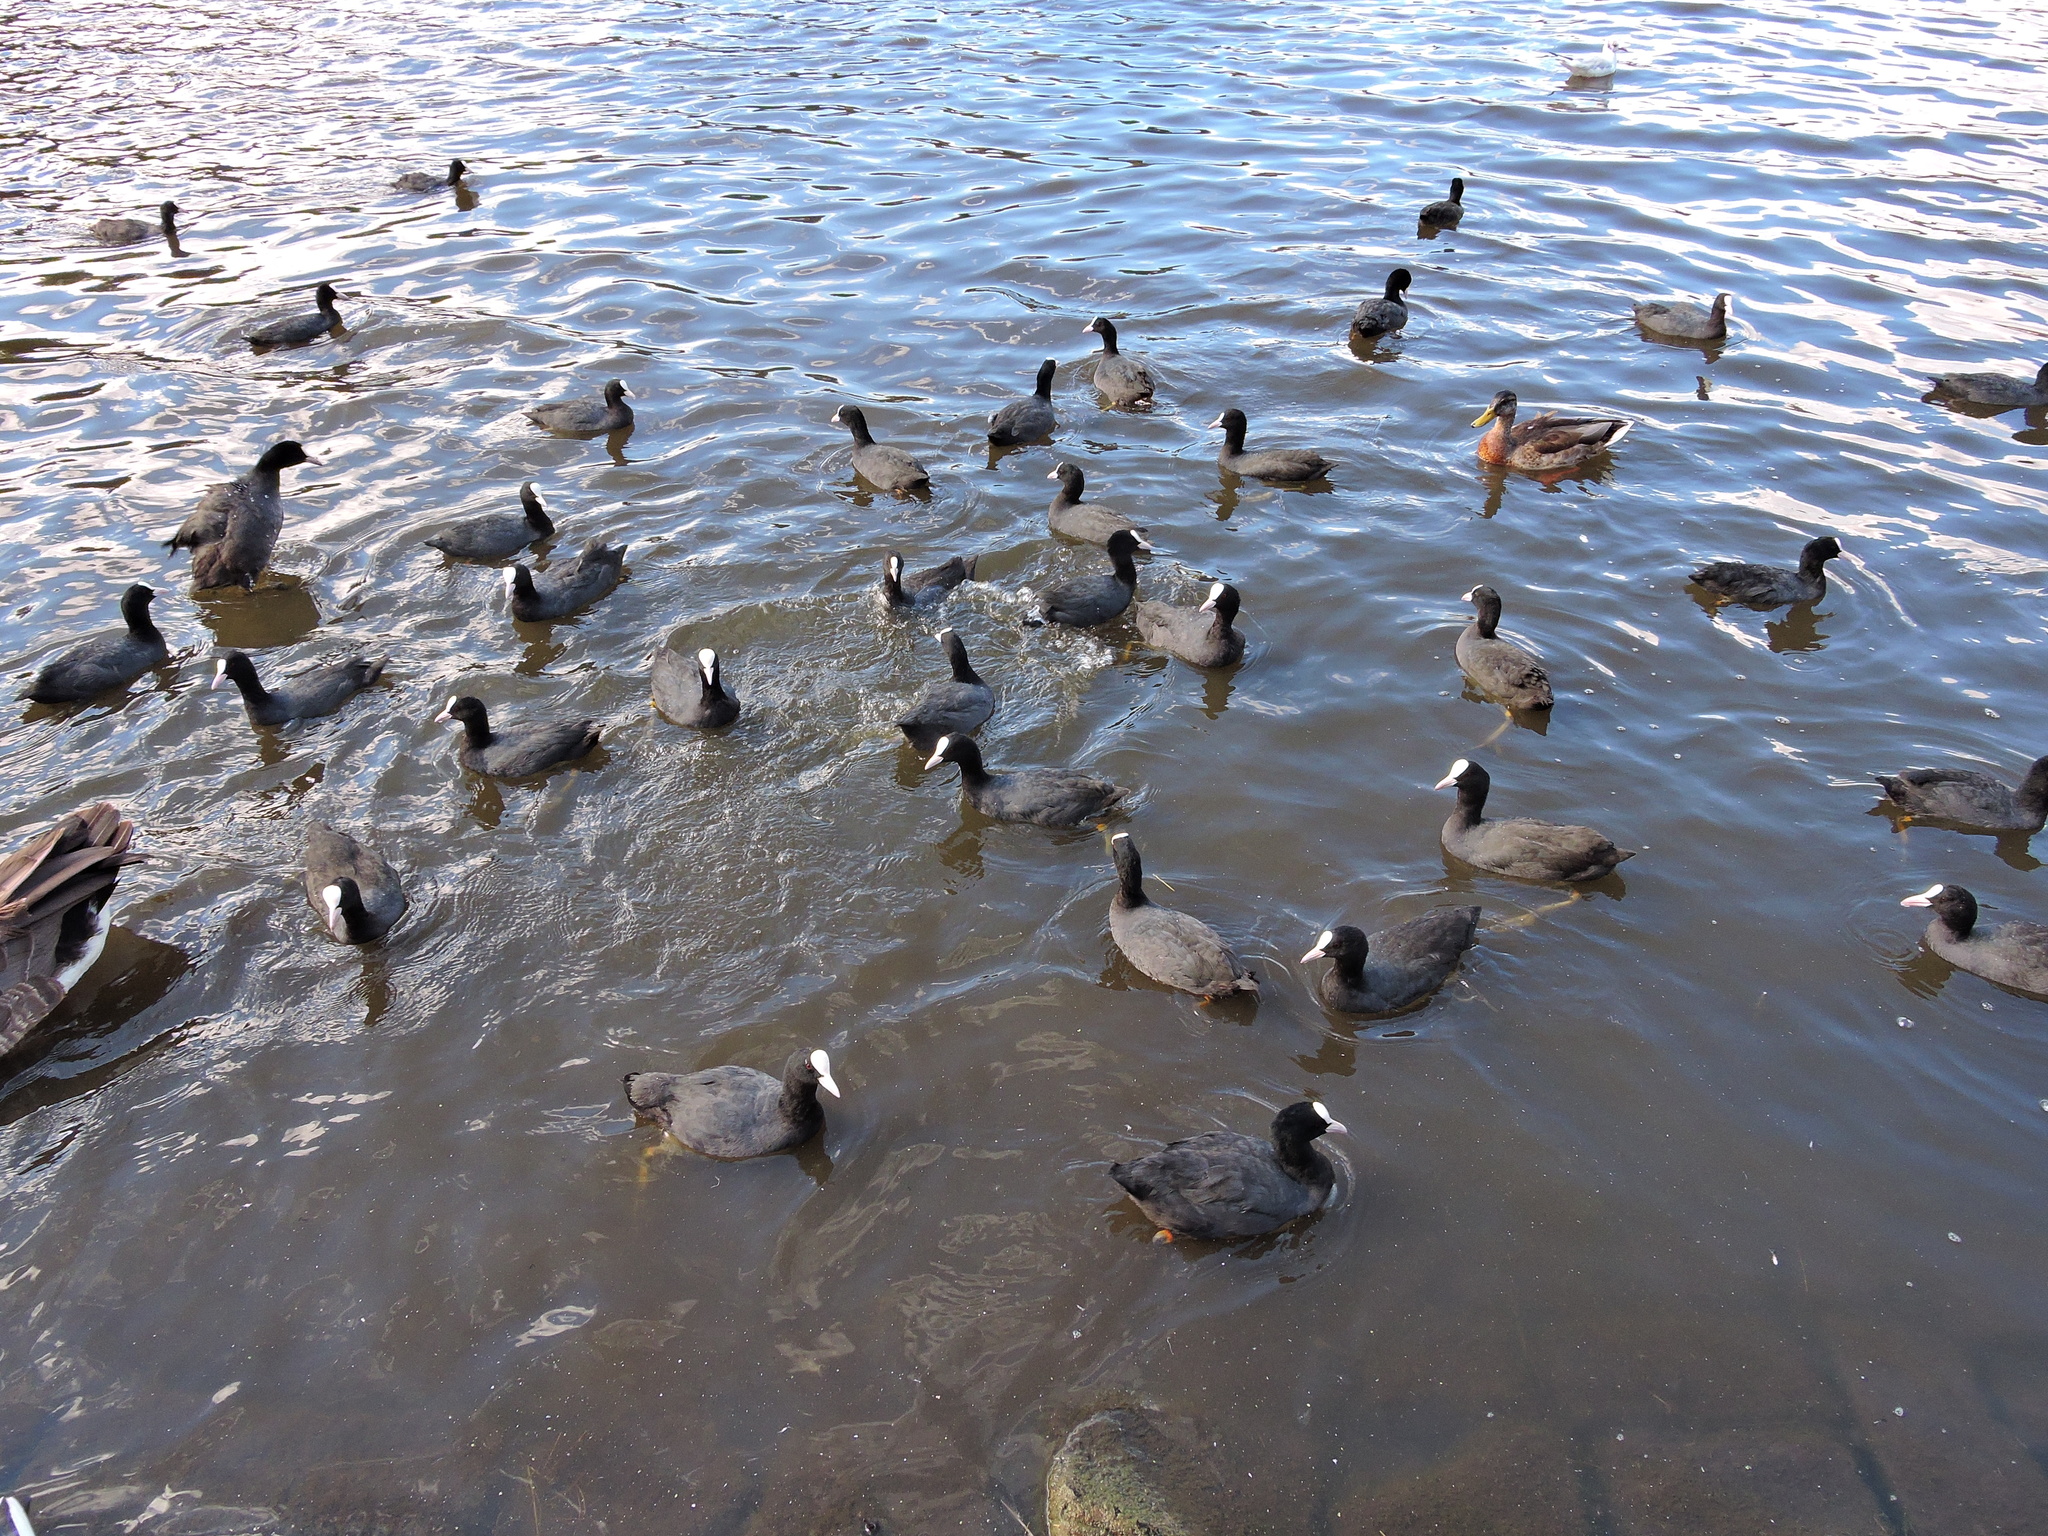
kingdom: Animalia
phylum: Chordata
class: Aves
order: Gruiformes
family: Rallidae
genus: Fulica
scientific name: Fulica atra
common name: Eurasian coot
